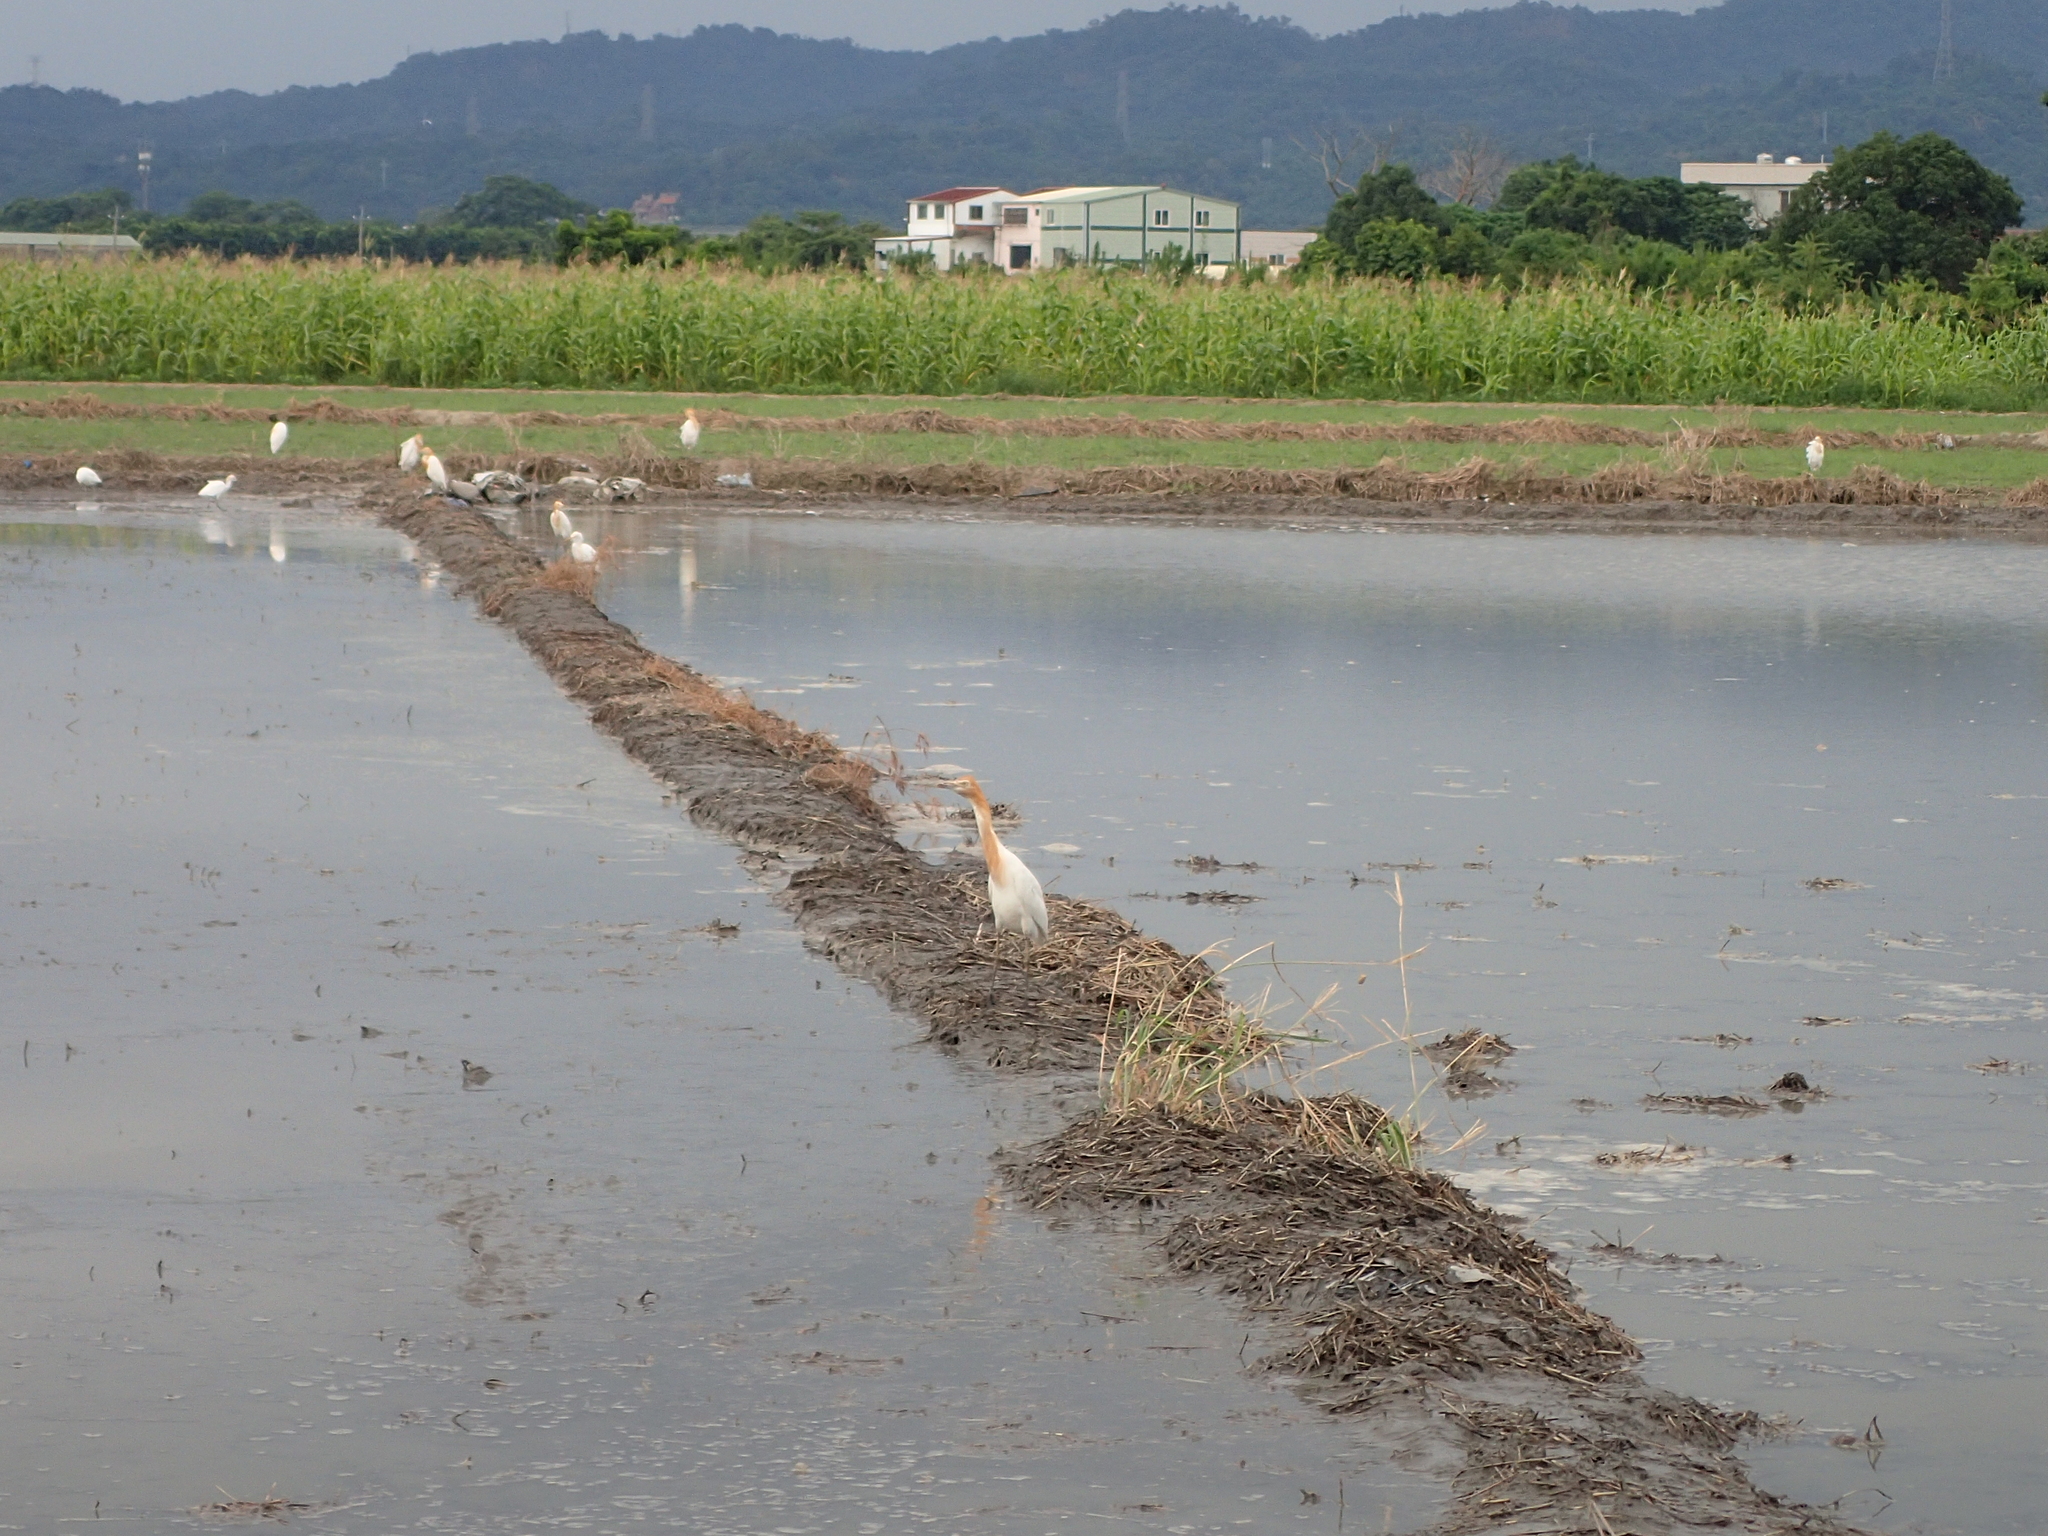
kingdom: Animalia
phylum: Chordata
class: Aves
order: Pelecaniformes
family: Ardeidae
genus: Bubulcus
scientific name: Bubulcus coromandus
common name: Eastern cattle egret
